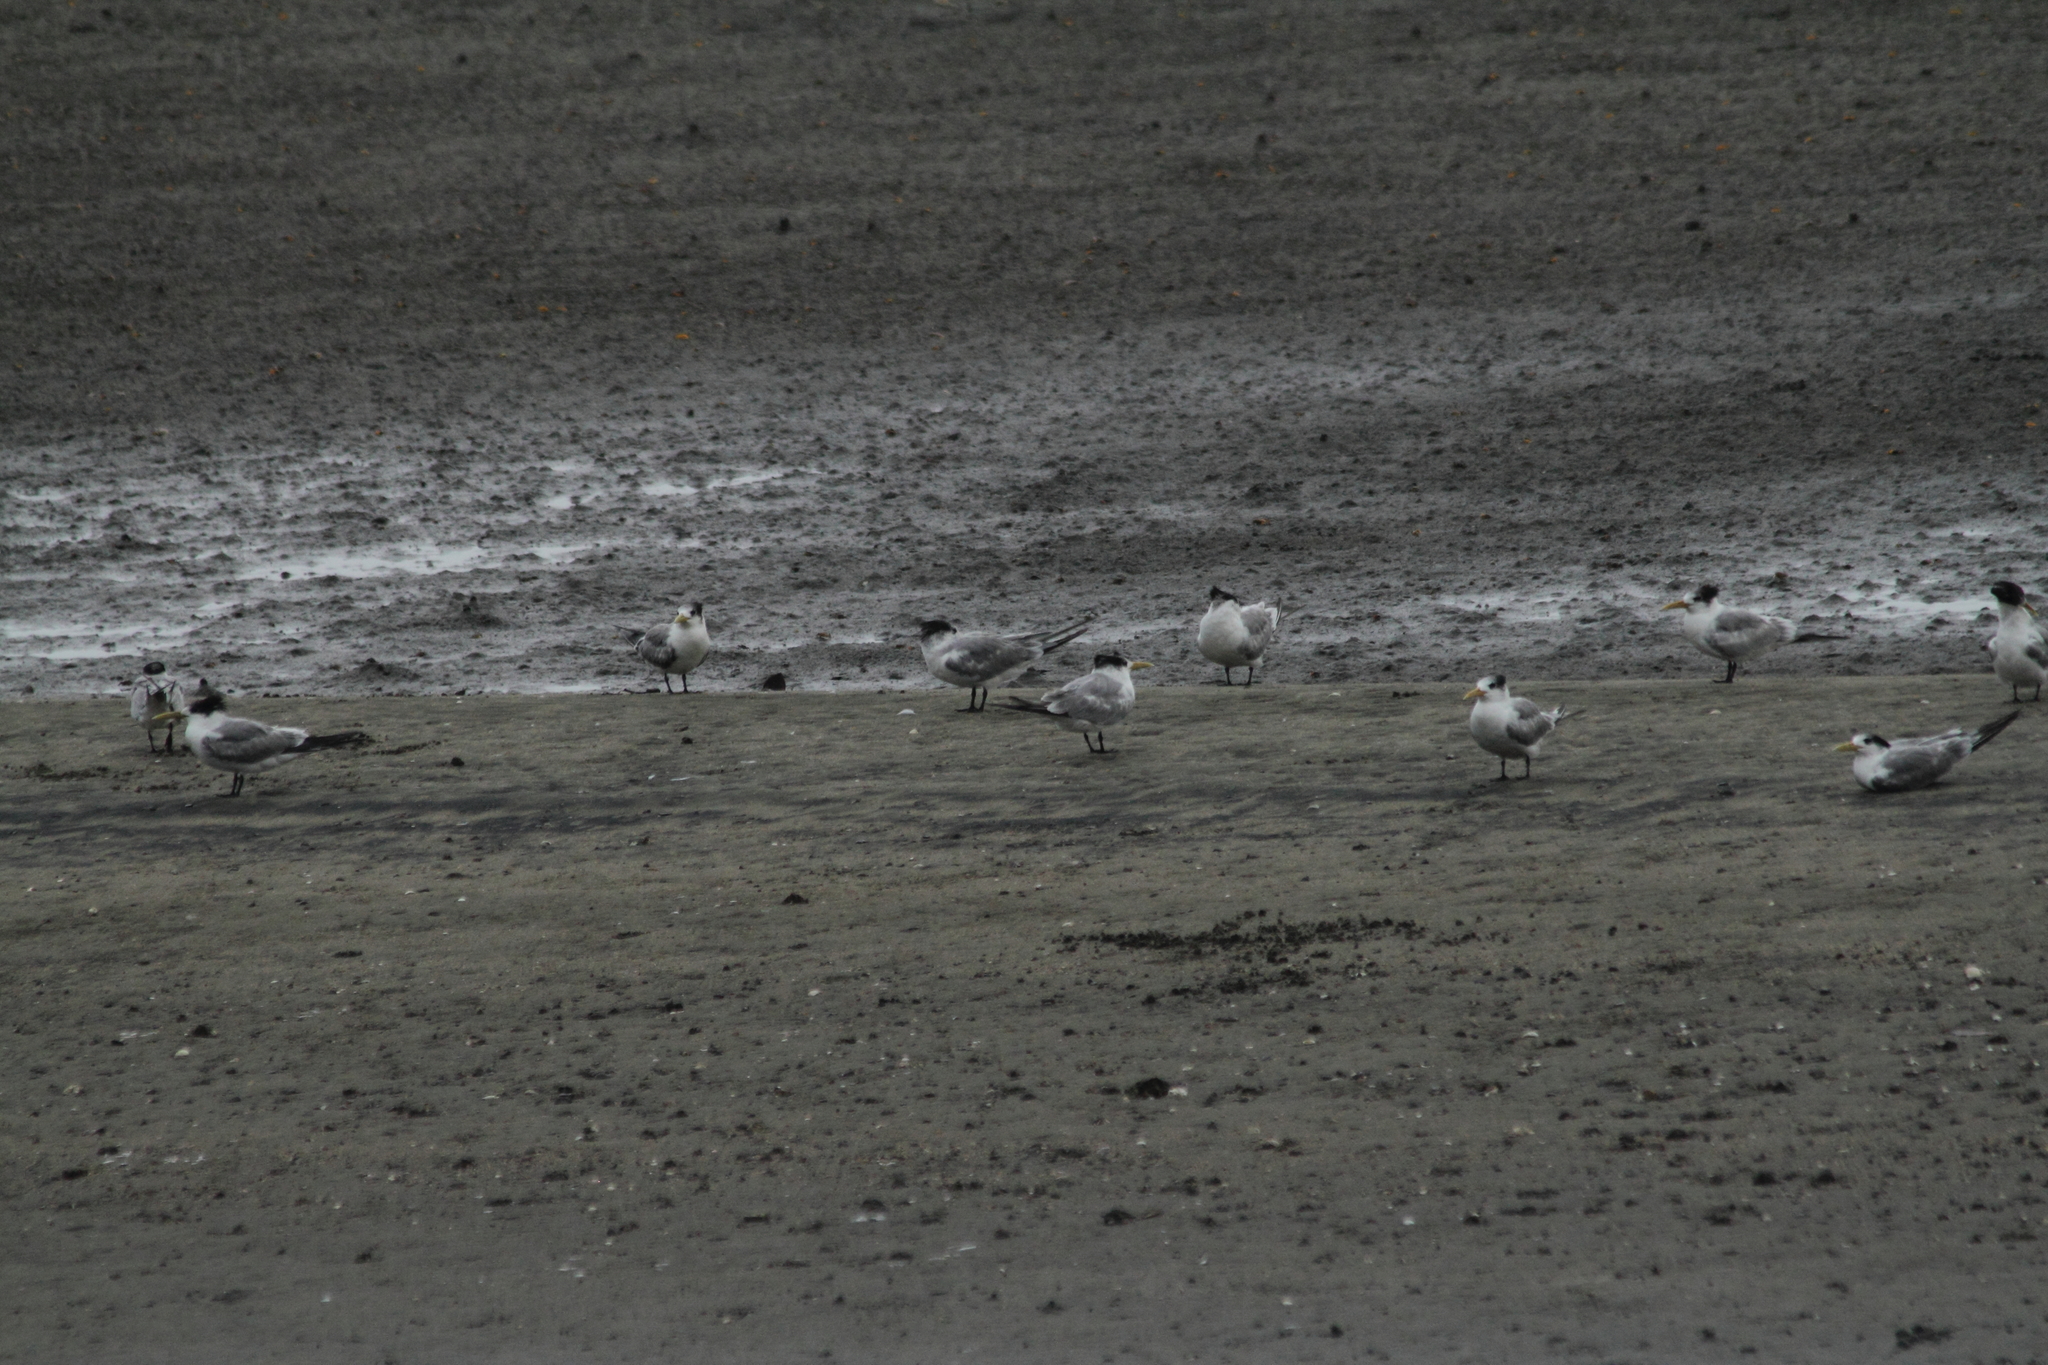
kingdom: Animalia
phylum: Chordata
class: Aves
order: Charadriiformes
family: Laridae
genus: Thalasseus
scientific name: Thalasseus bergii
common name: Greater crested tern
